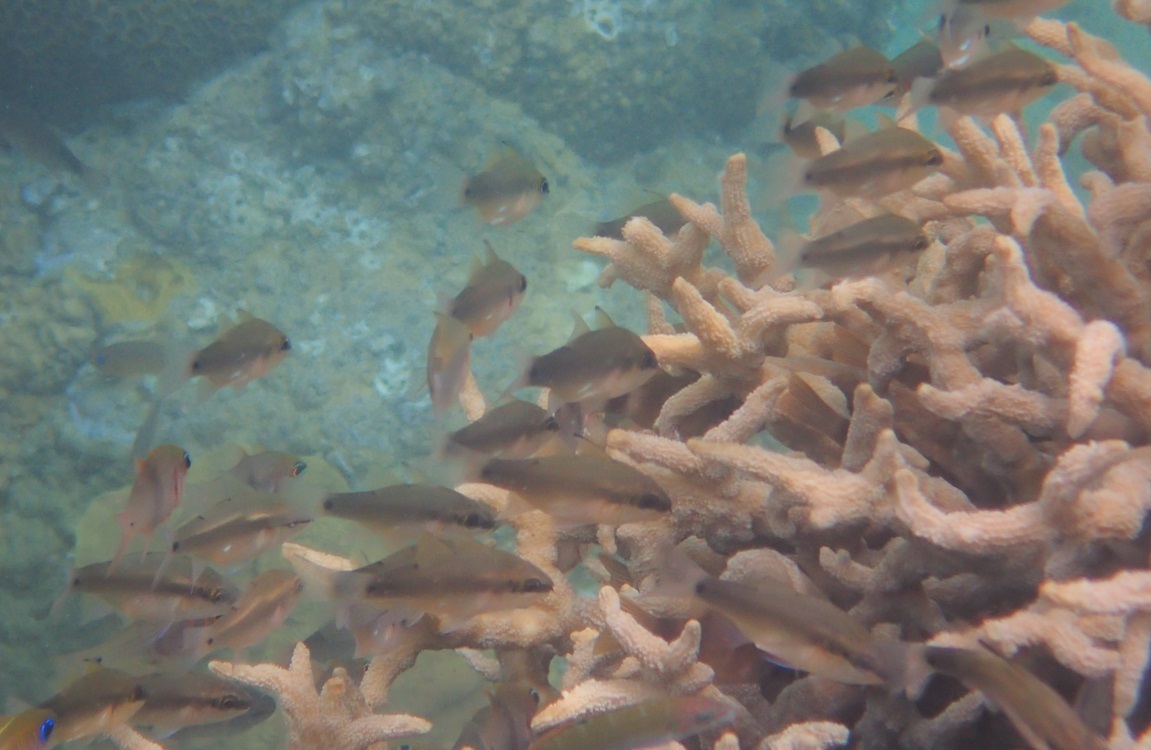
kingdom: Animalia
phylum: Chordata
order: Perciformes
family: Apogonidae
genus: Fibramia
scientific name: Fibramia thermalis
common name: Sangi cardinalfish
